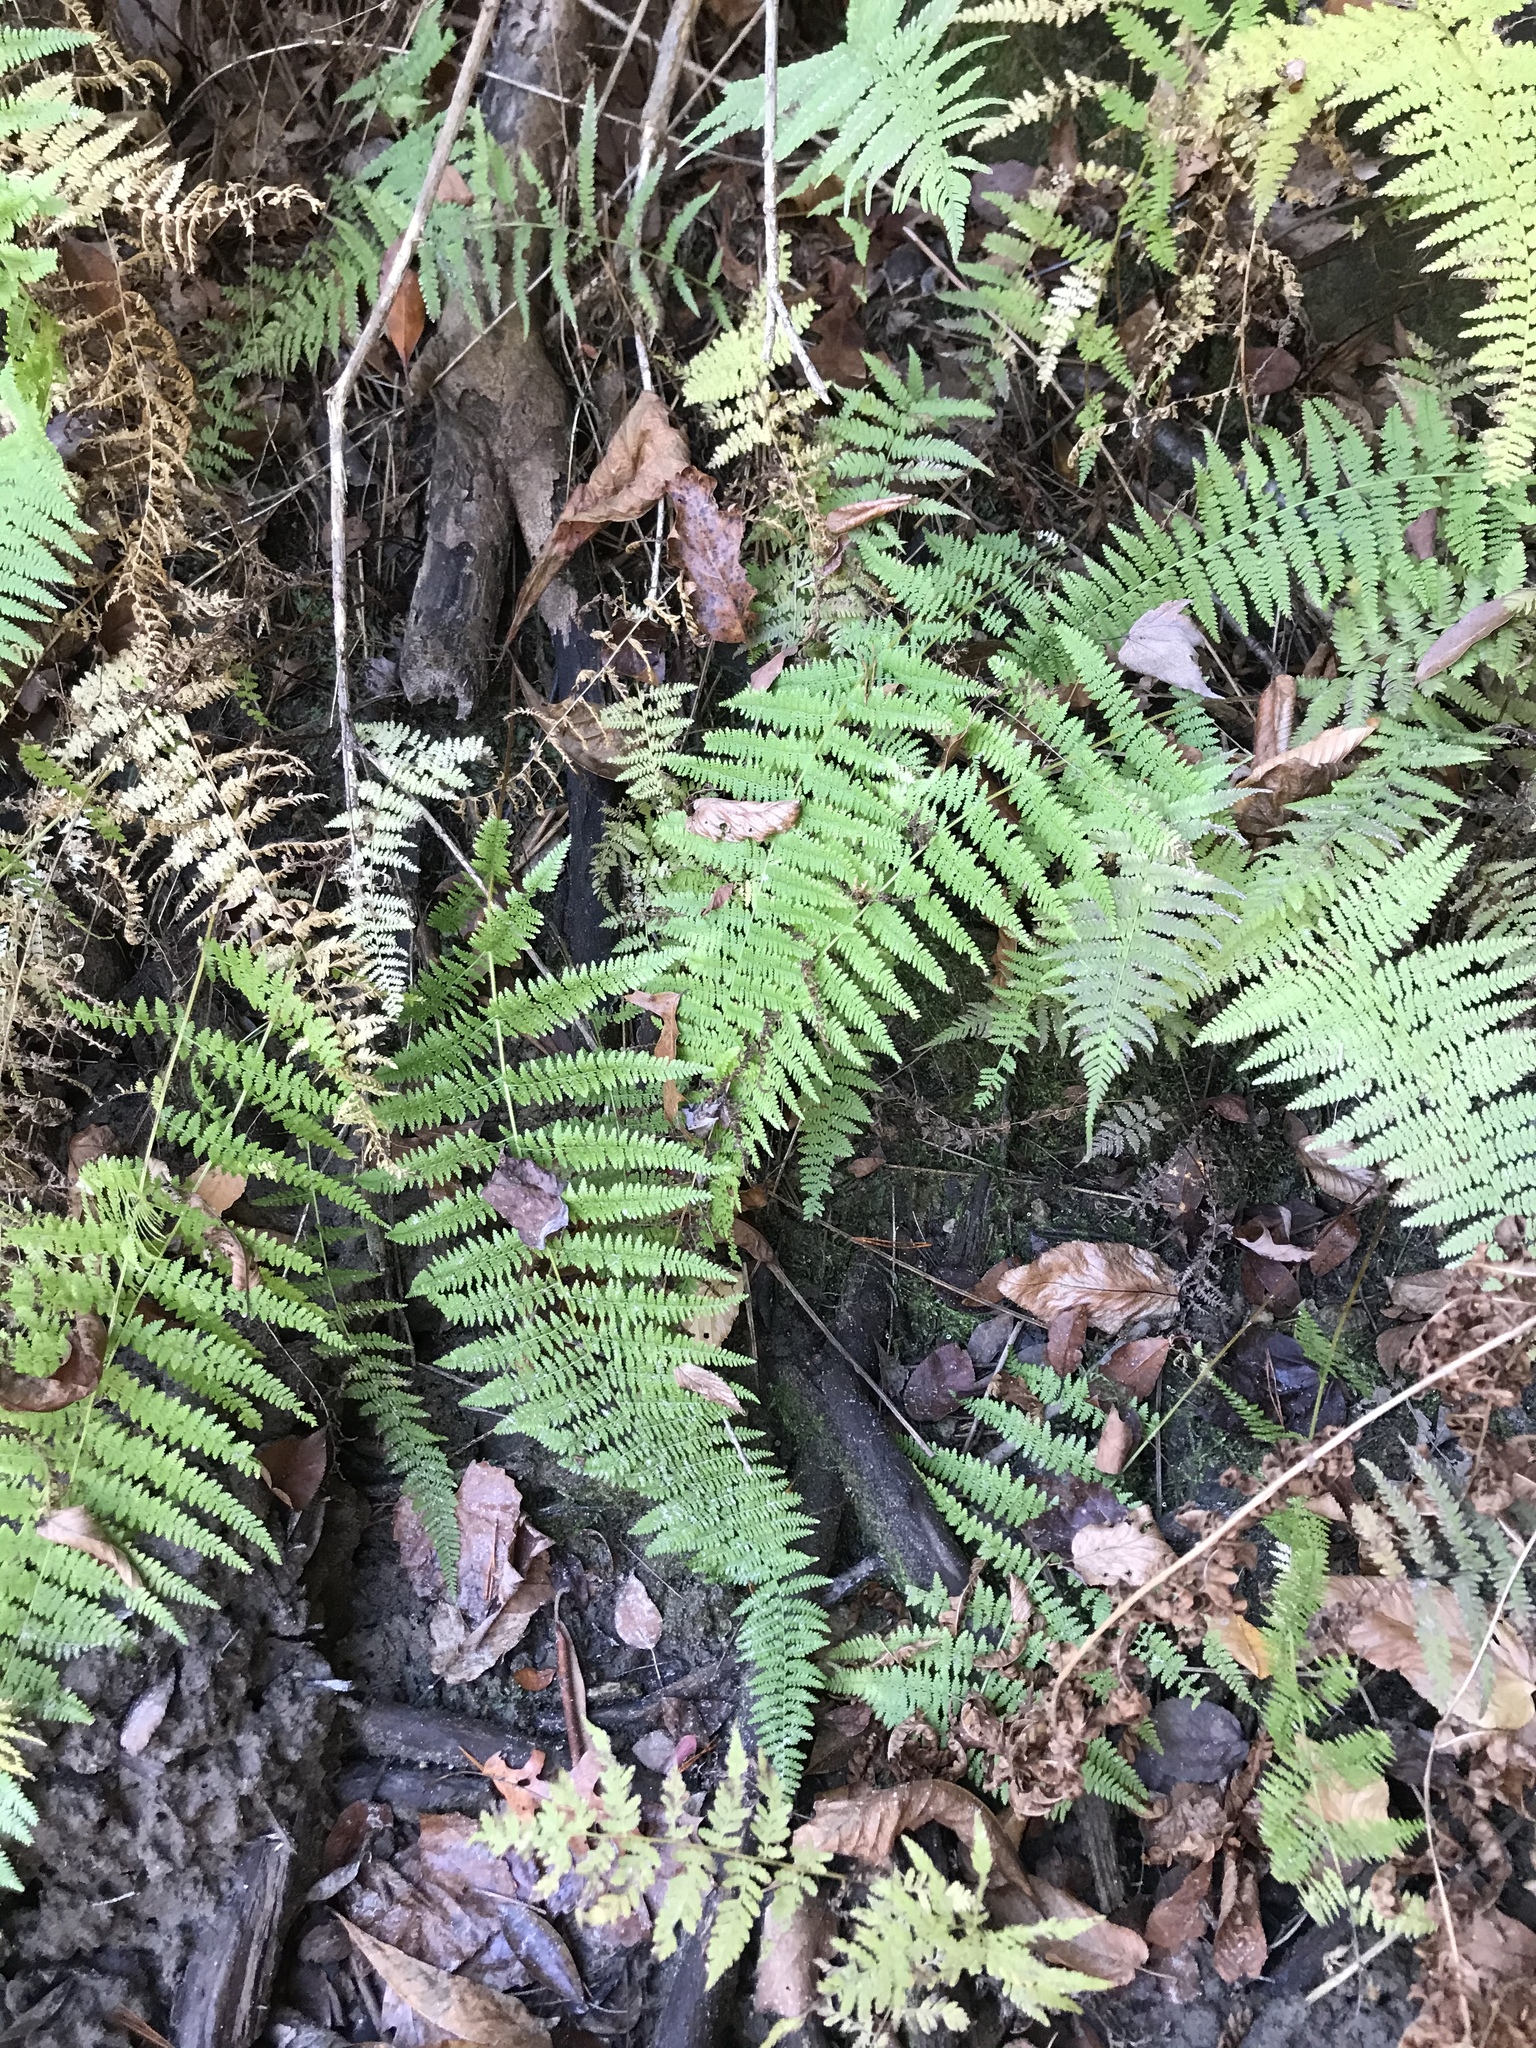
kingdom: Plantae
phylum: Tracheophyta
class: Polypodiopsida
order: Polypodiales
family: Dennstaedtiaceae
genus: Sitobolium
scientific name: Sitobolium punctilobum
